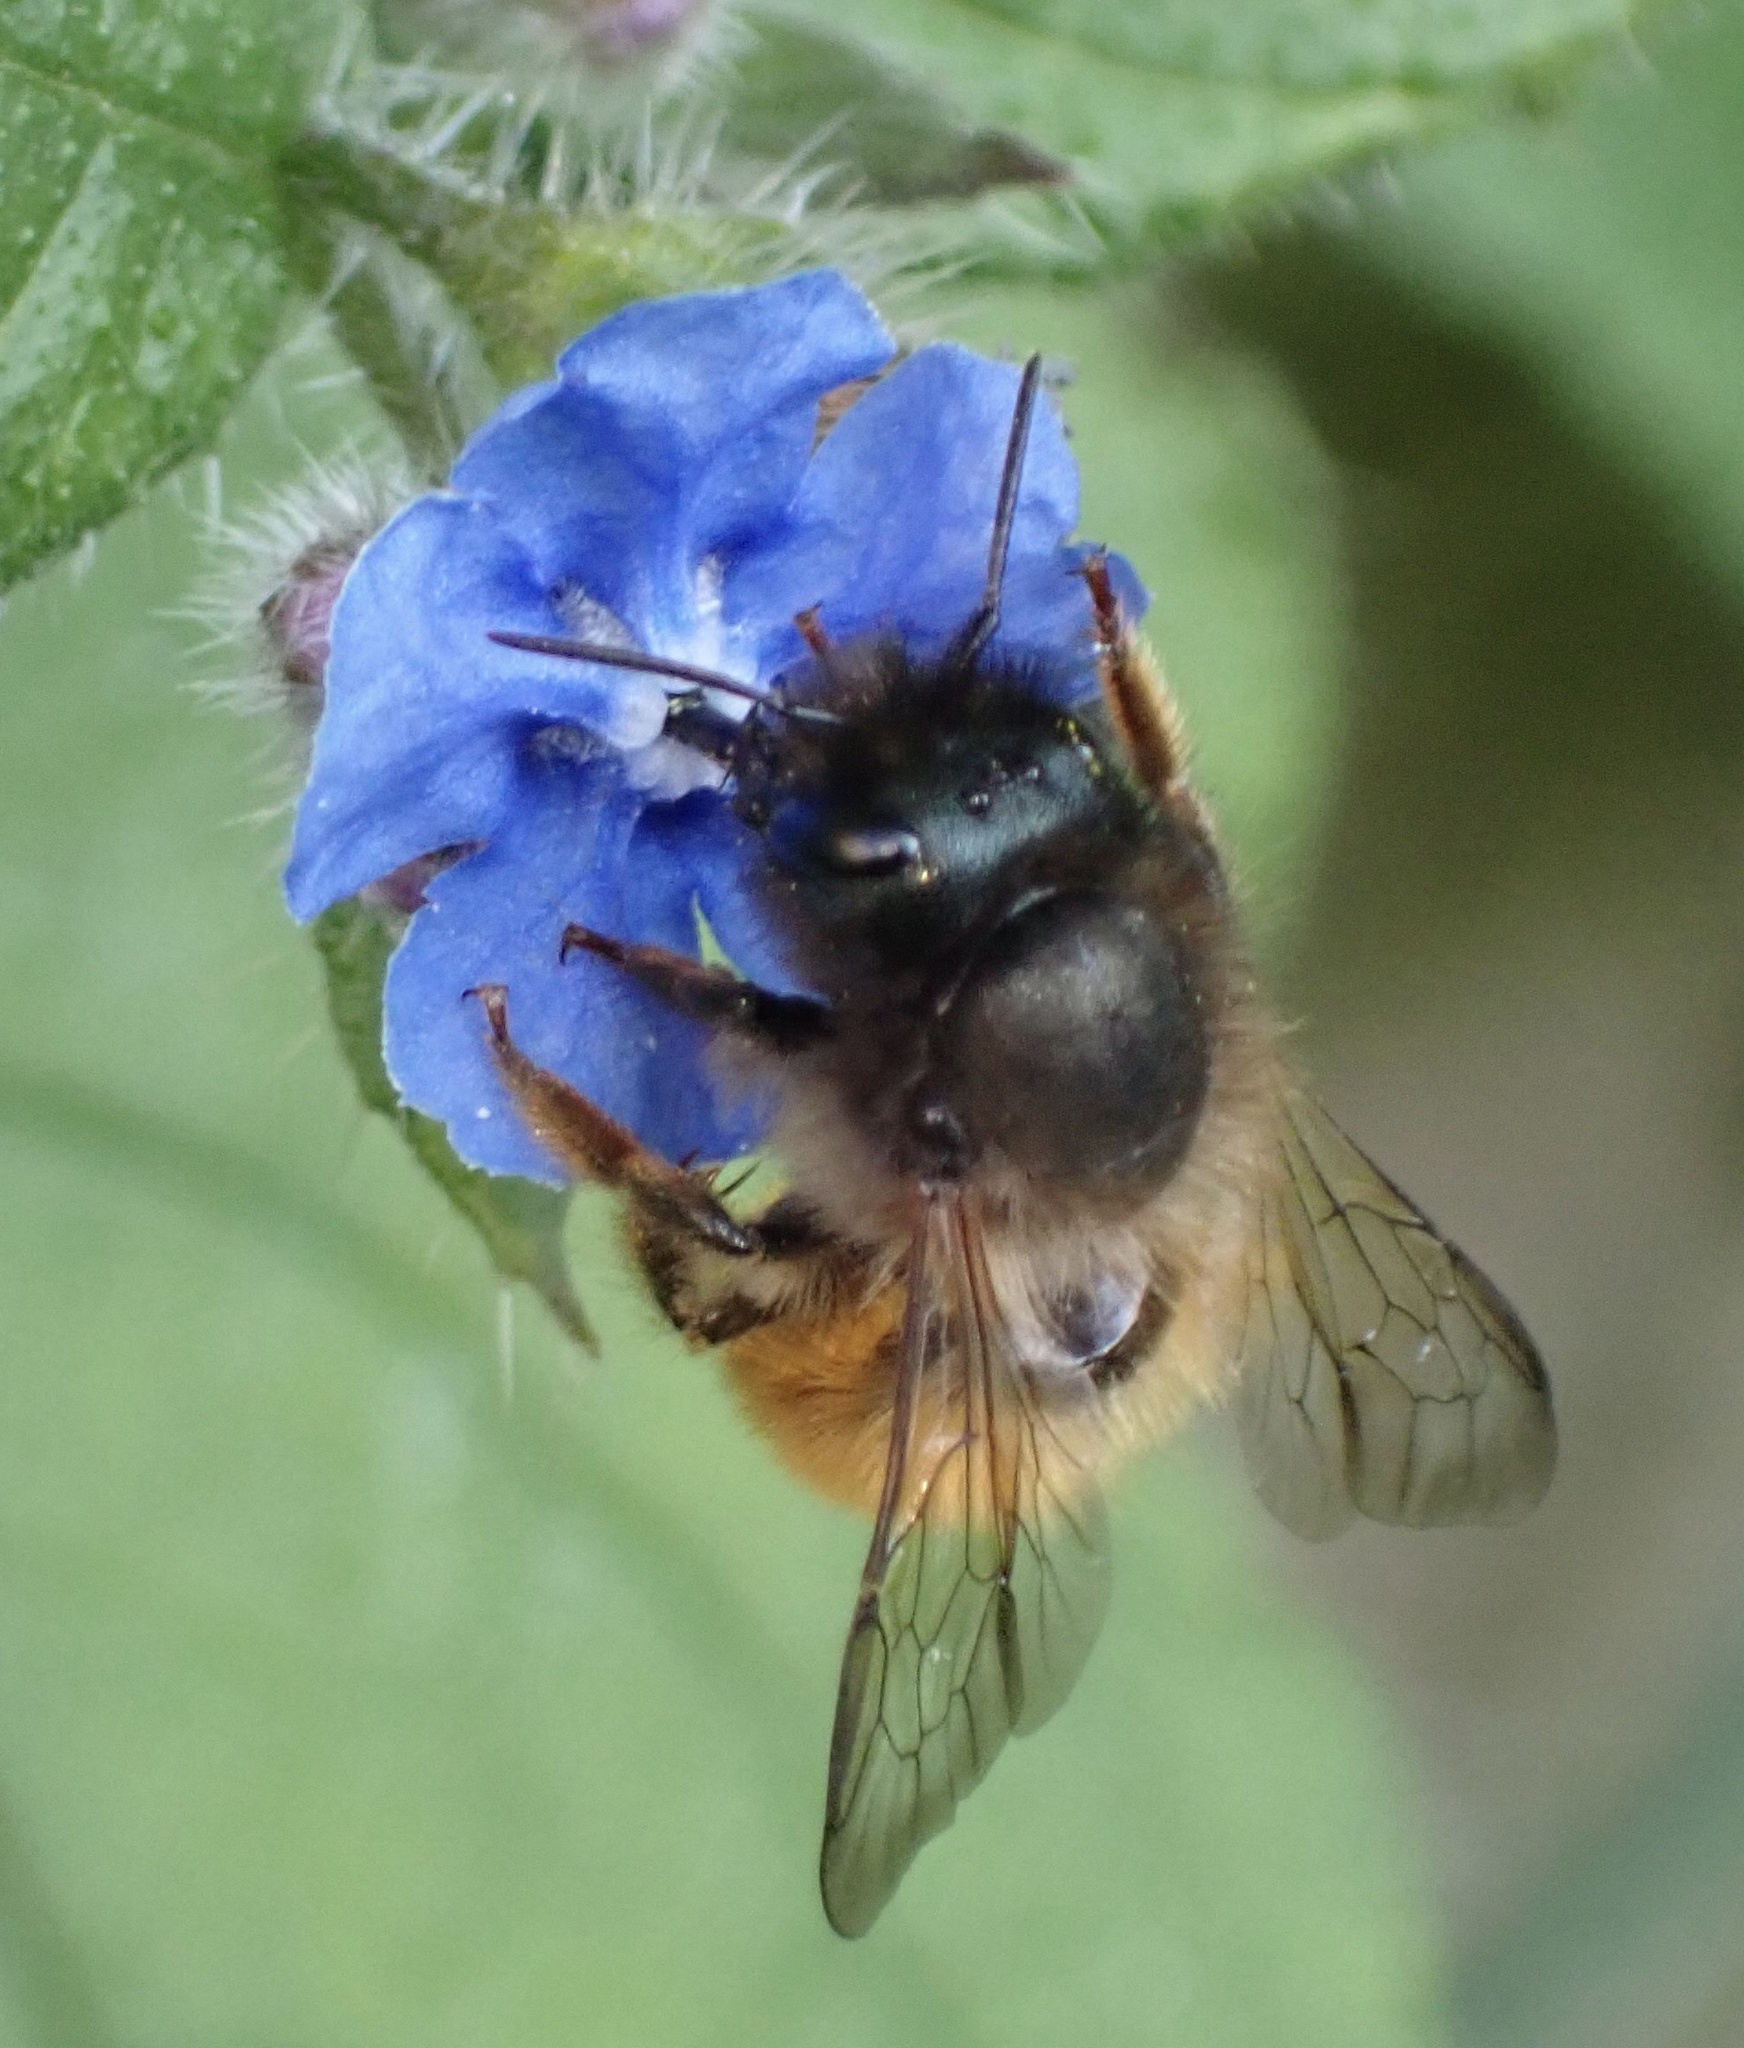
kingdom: Animalia
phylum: Arthropoda
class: Insecta
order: Hymenoptera
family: Megachilidae
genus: Osmia
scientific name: Osmia bicornis
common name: Red mason bee
